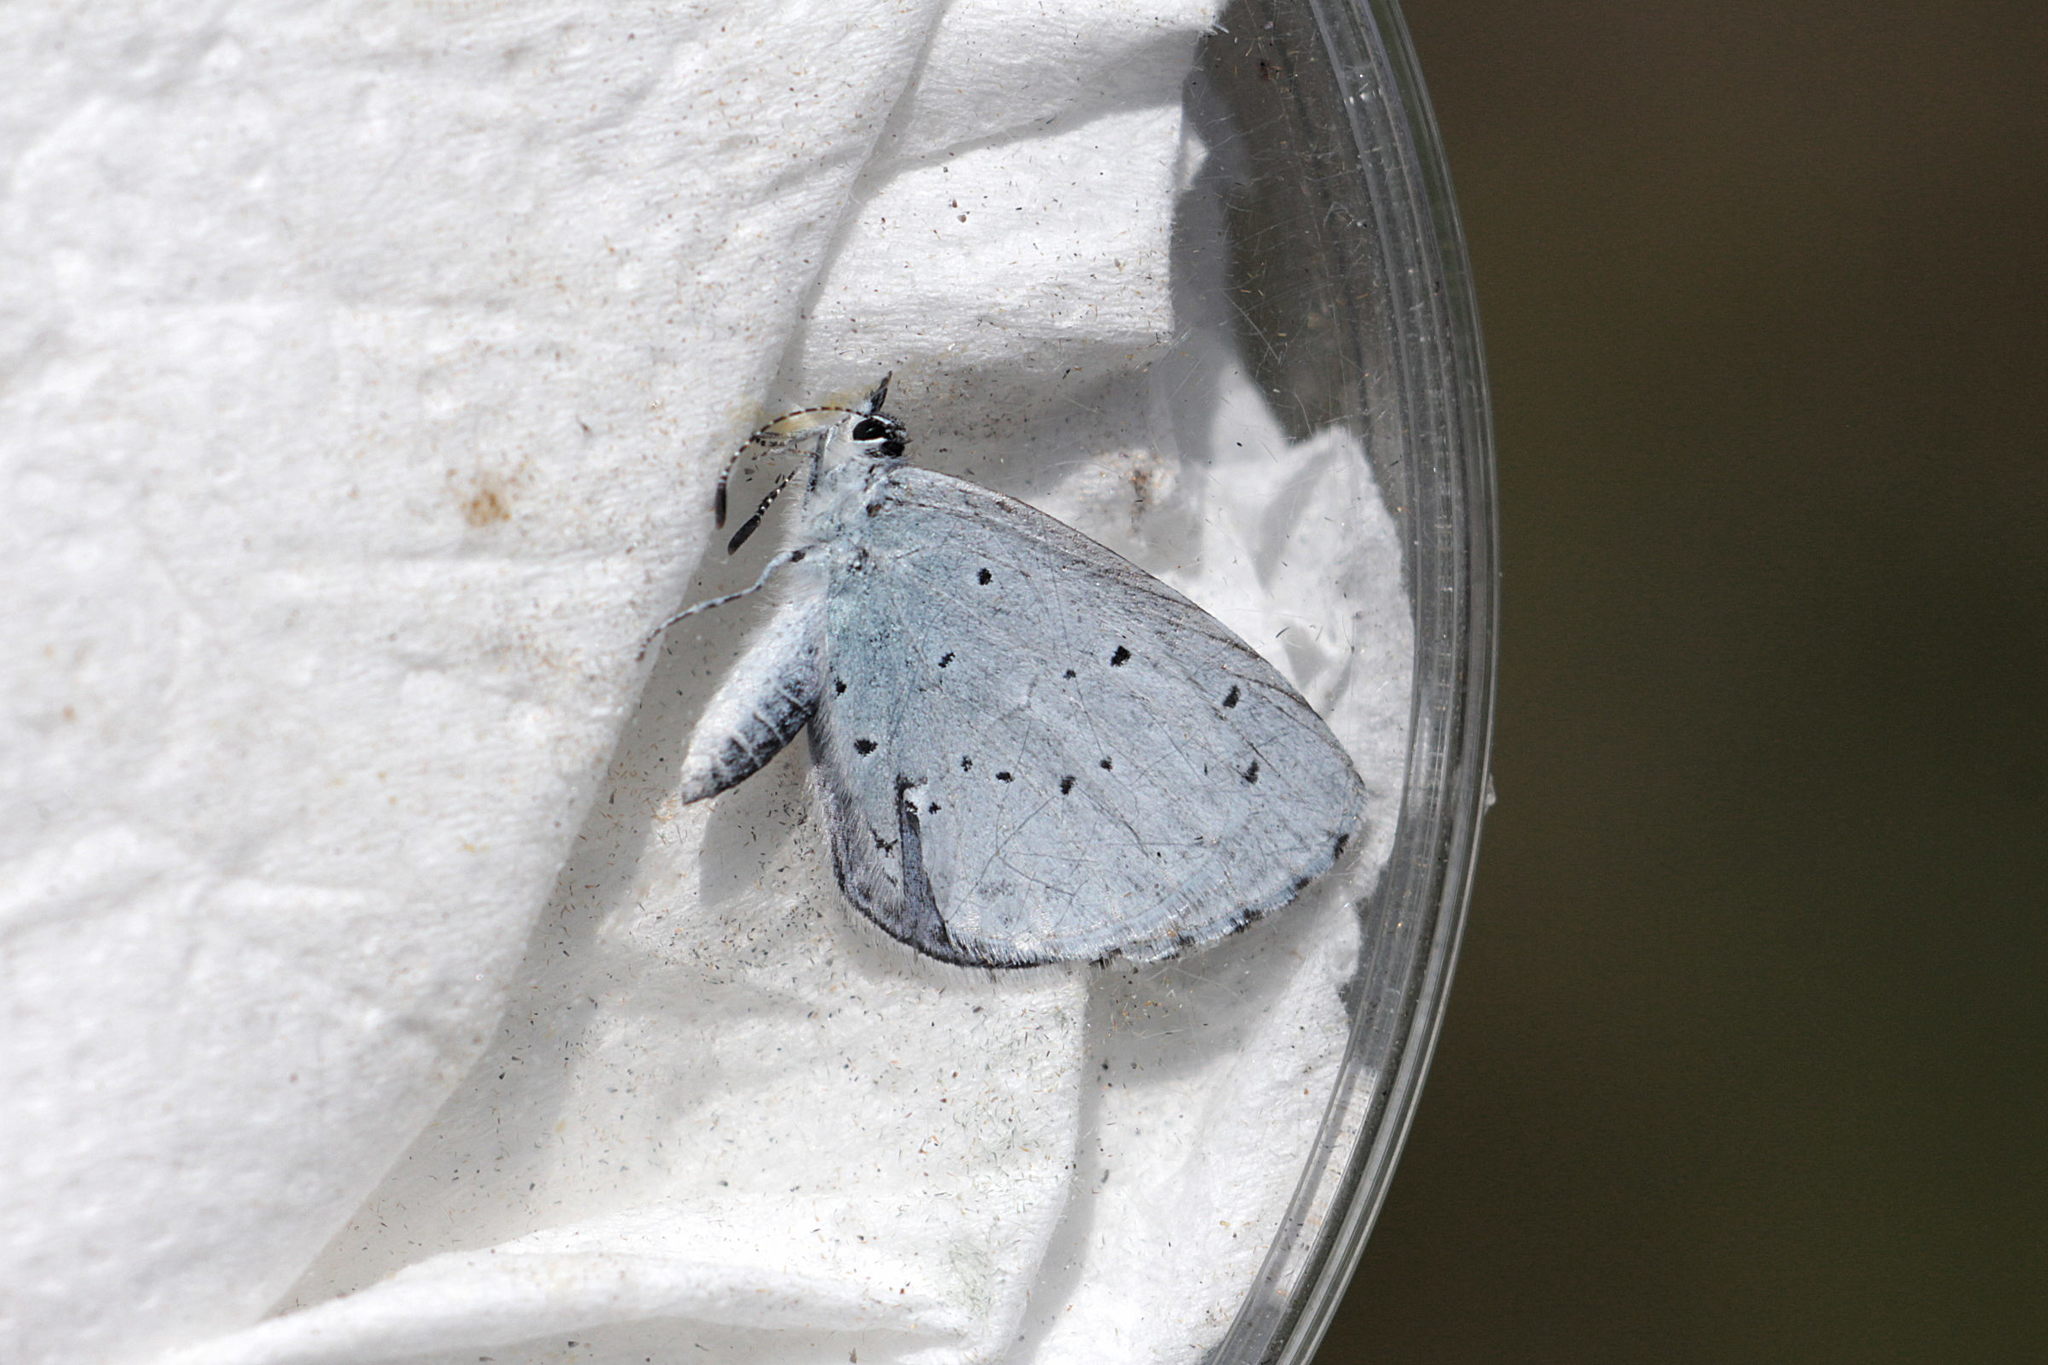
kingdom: Animalia
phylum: Arthropoda
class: Insecta
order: Lepidoptera
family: Lycaenidae
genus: Celastrina
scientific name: Celastrina argiolus
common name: Holly blue
